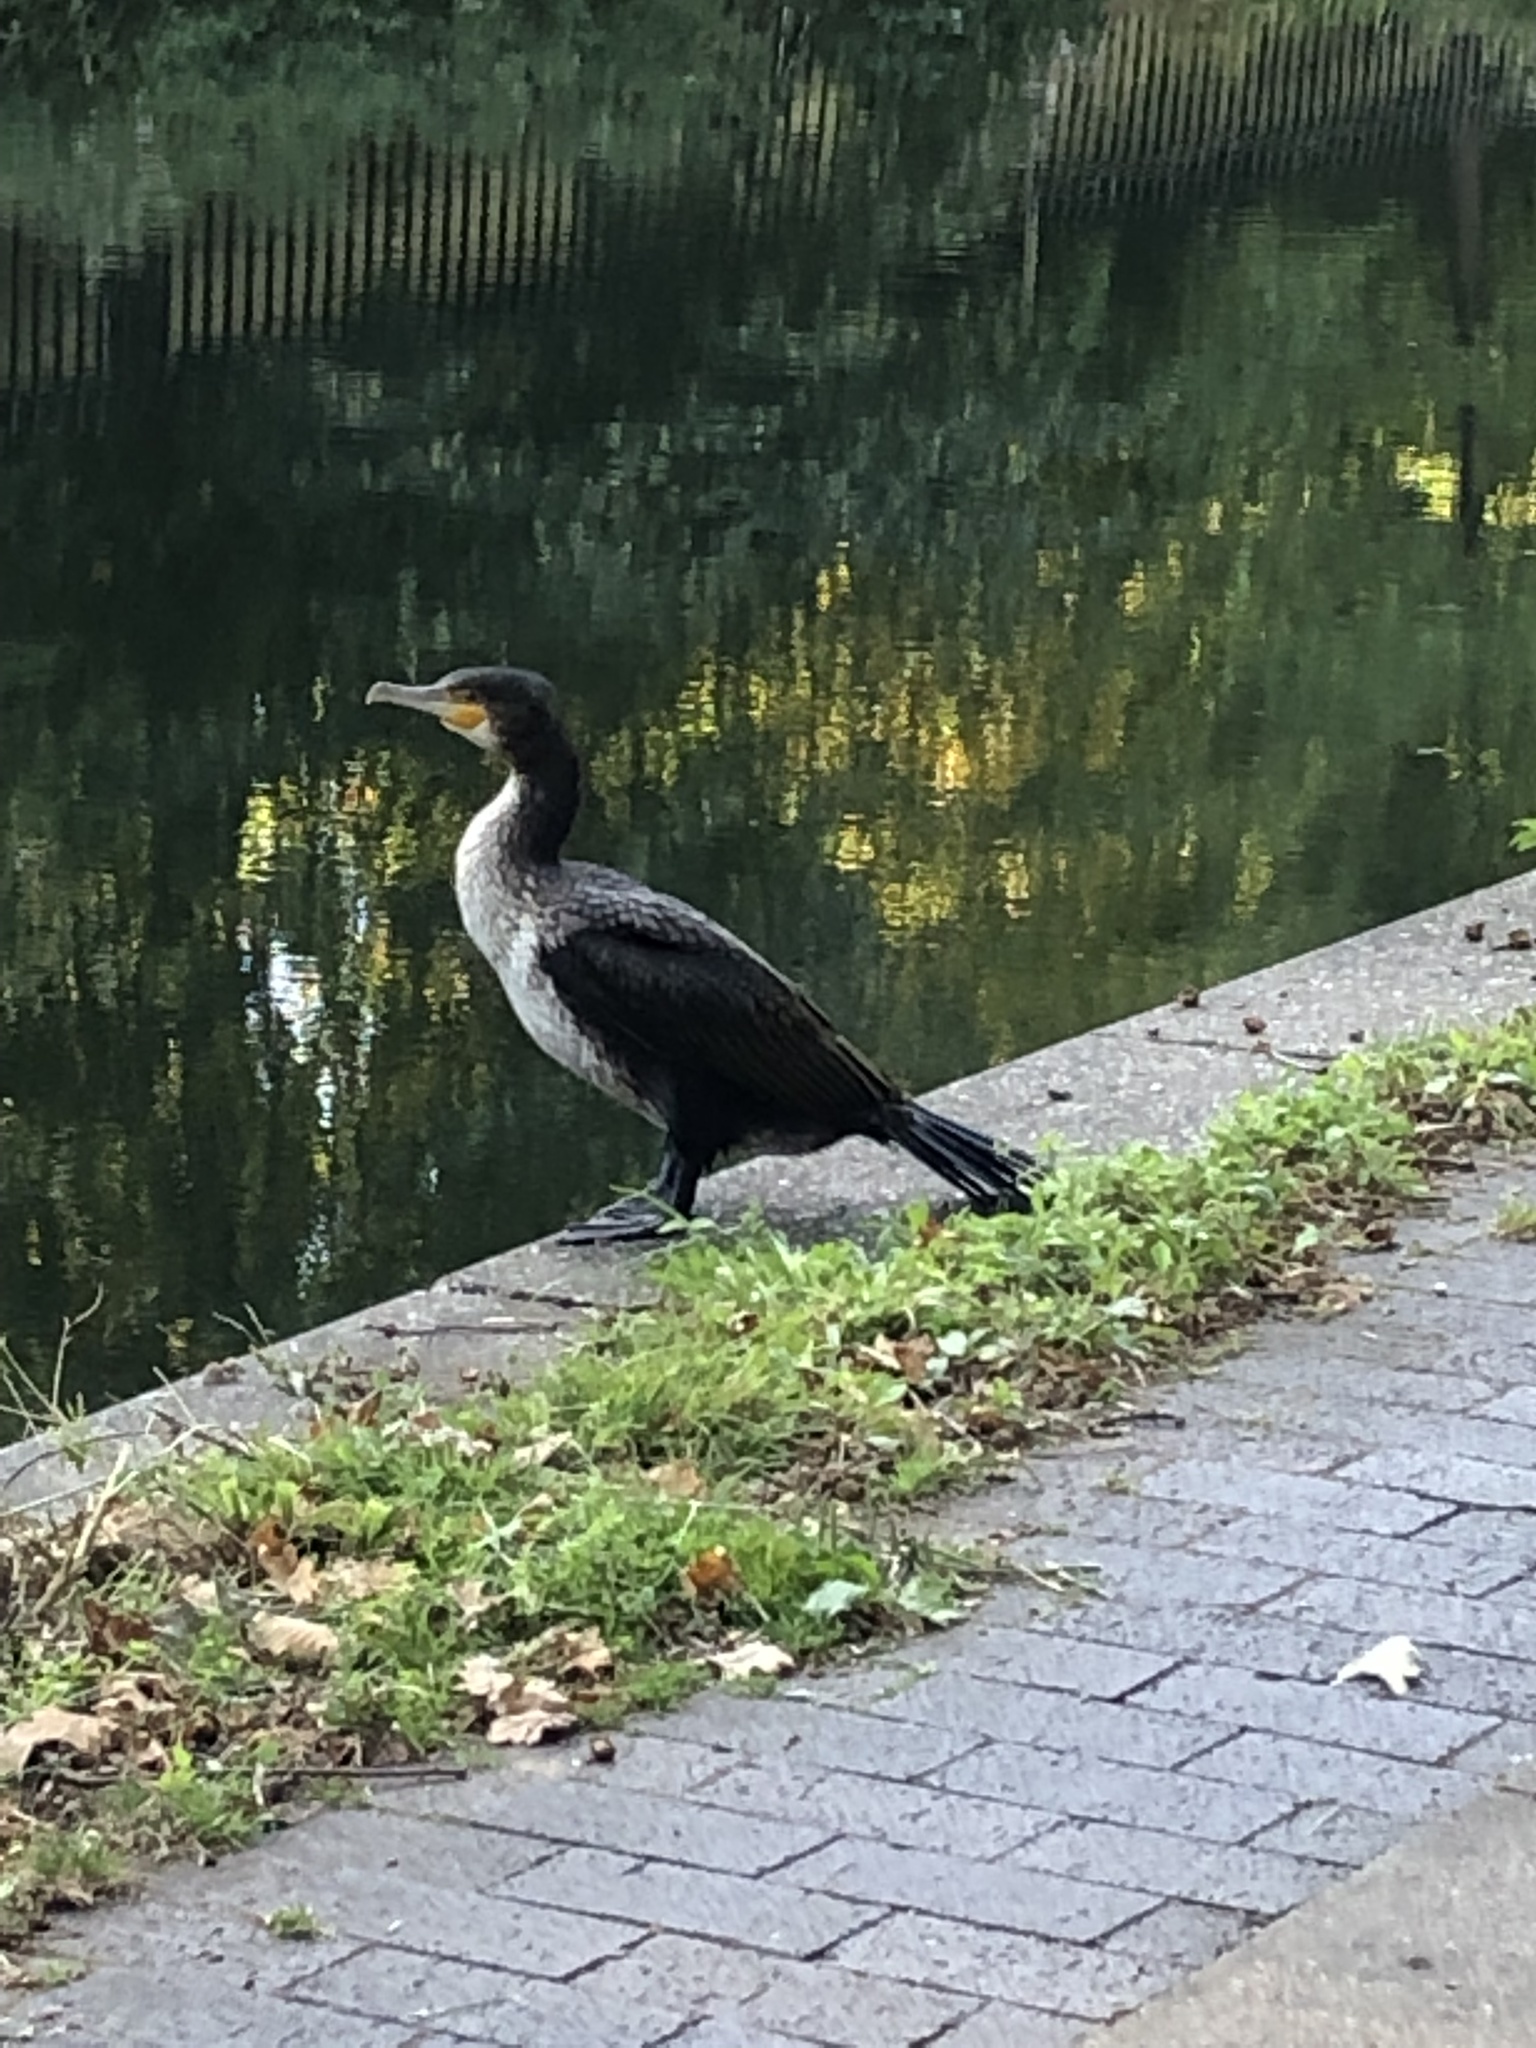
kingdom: Animalia
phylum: Chordata
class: Aves
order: Suliformes
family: Phalacrocoracidae
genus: Phalacrocorax
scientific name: Phalacrocorax carbo
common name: Great cormorant
